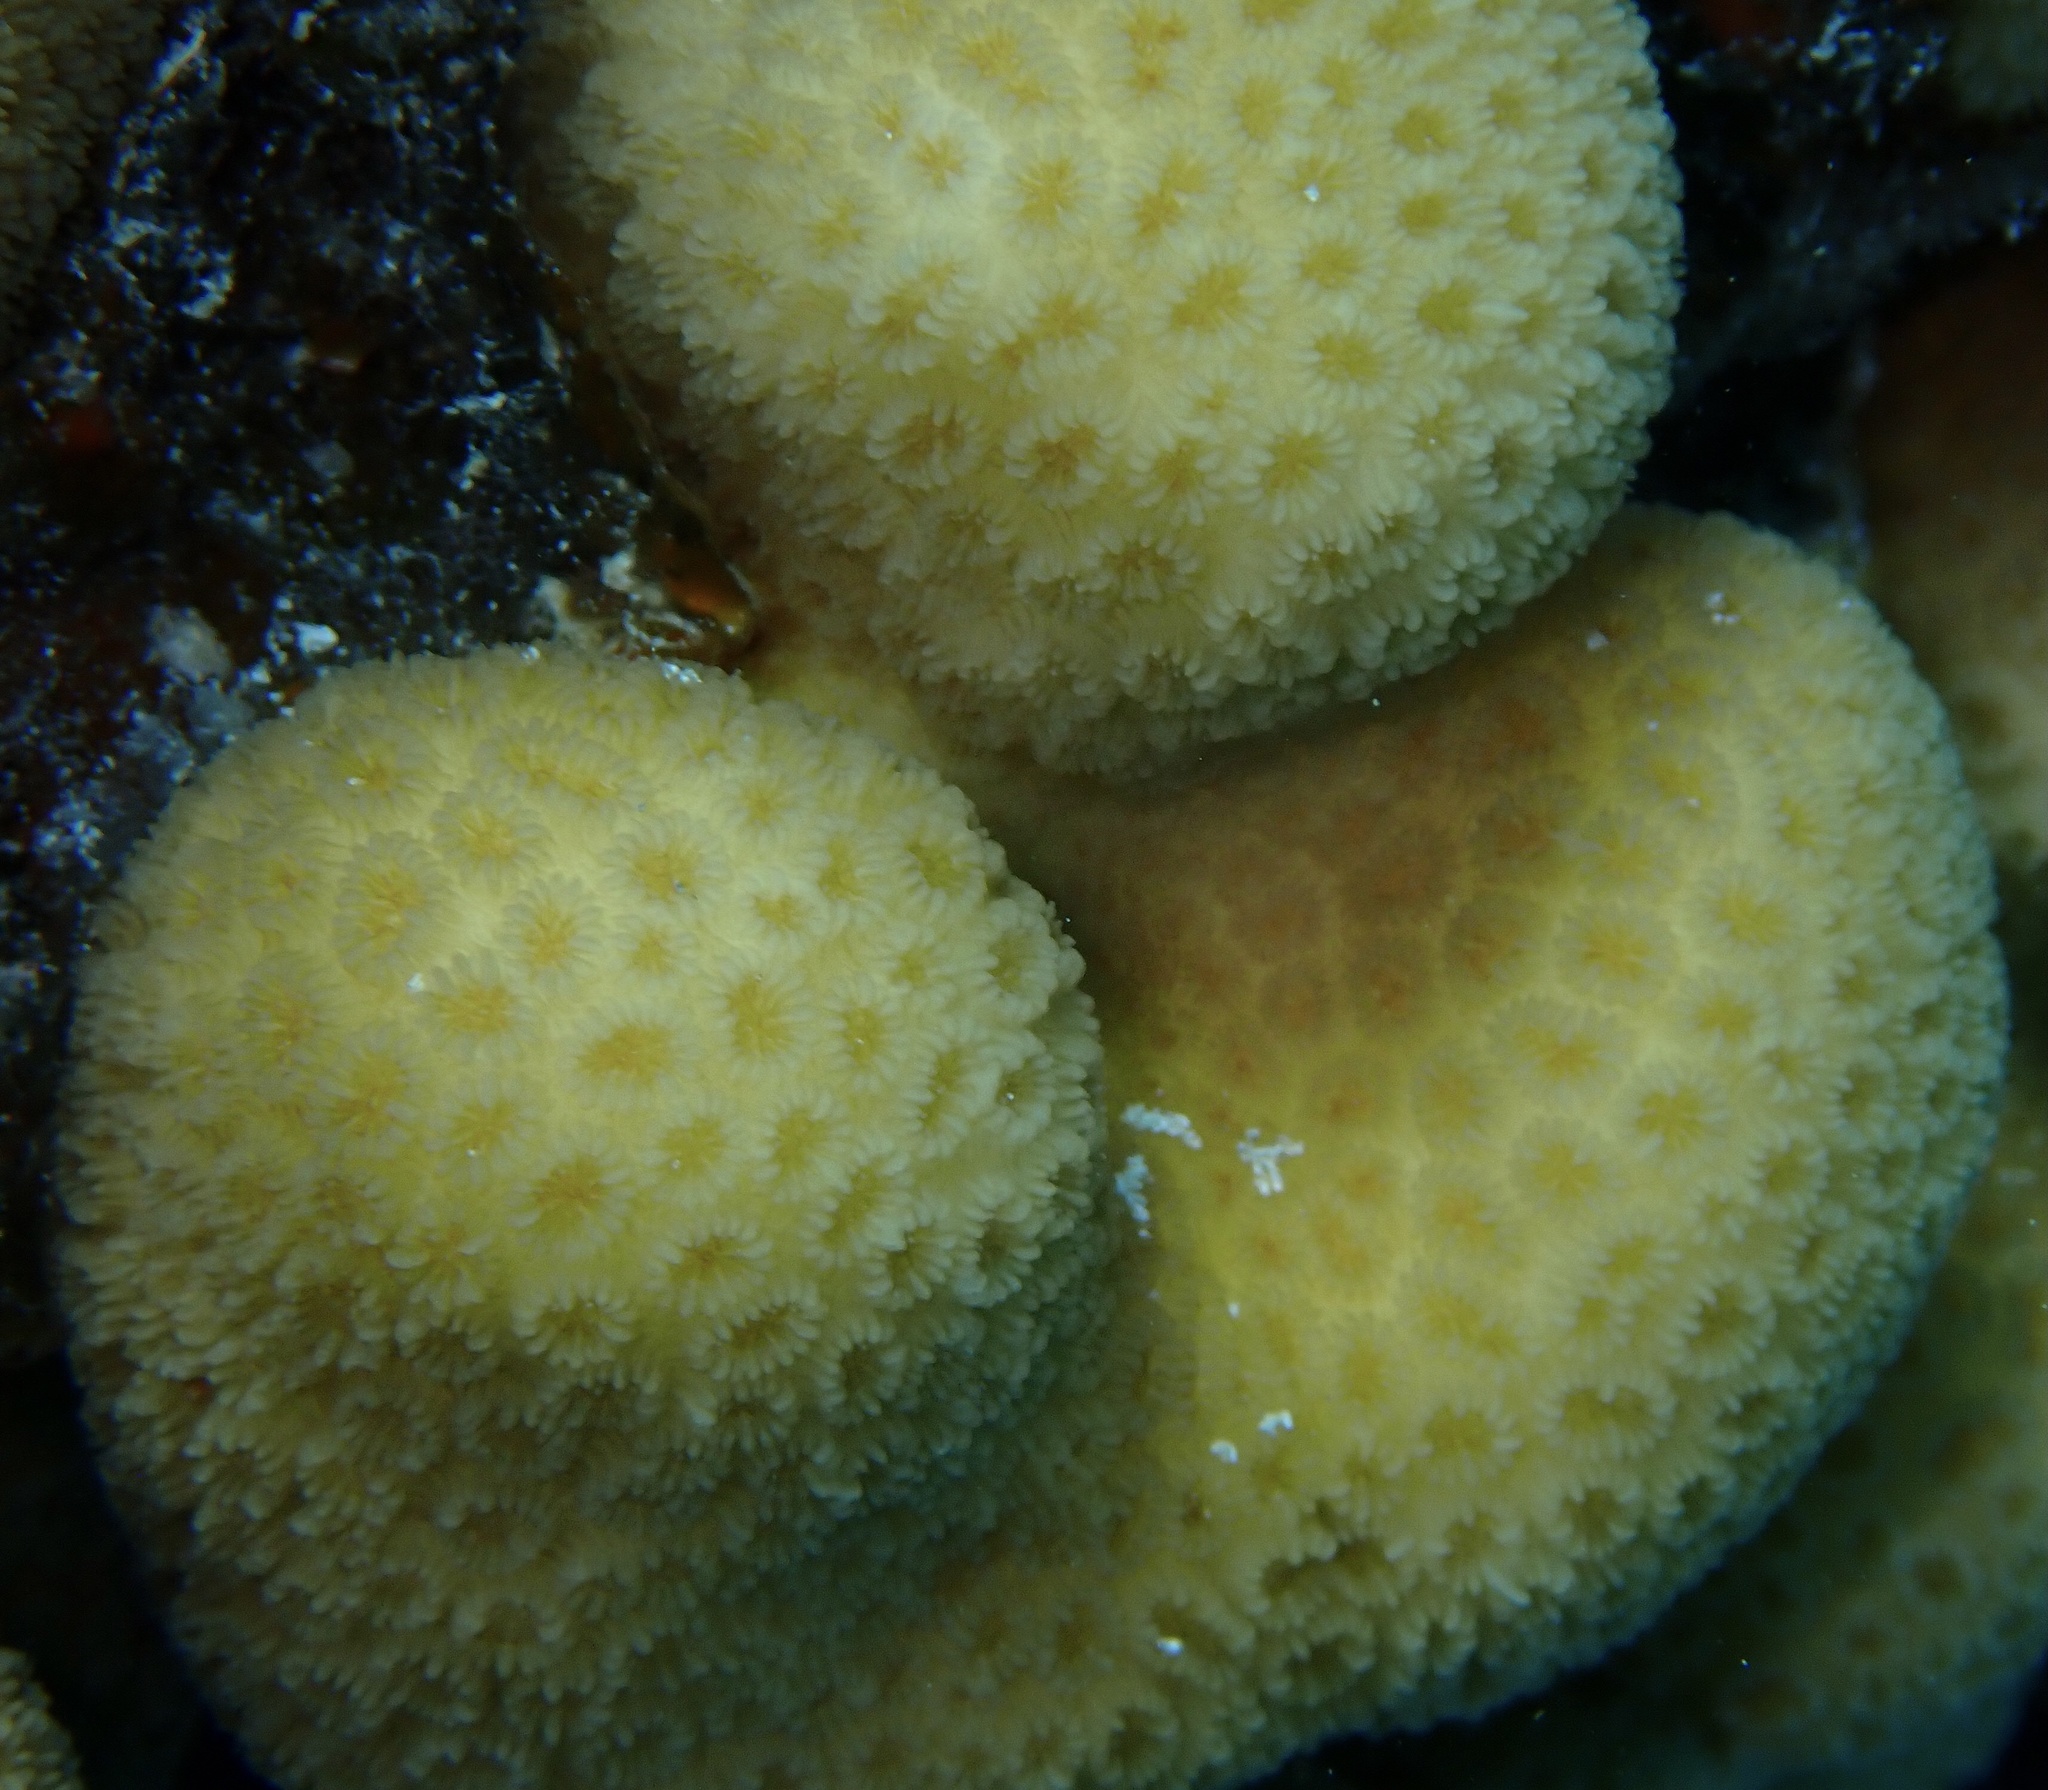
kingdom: Animalia
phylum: Cnidaria
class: Anthozoa
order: Scleractinia
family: Merulinidae
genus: Goniastrea
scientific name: Goniastrea stelligera
